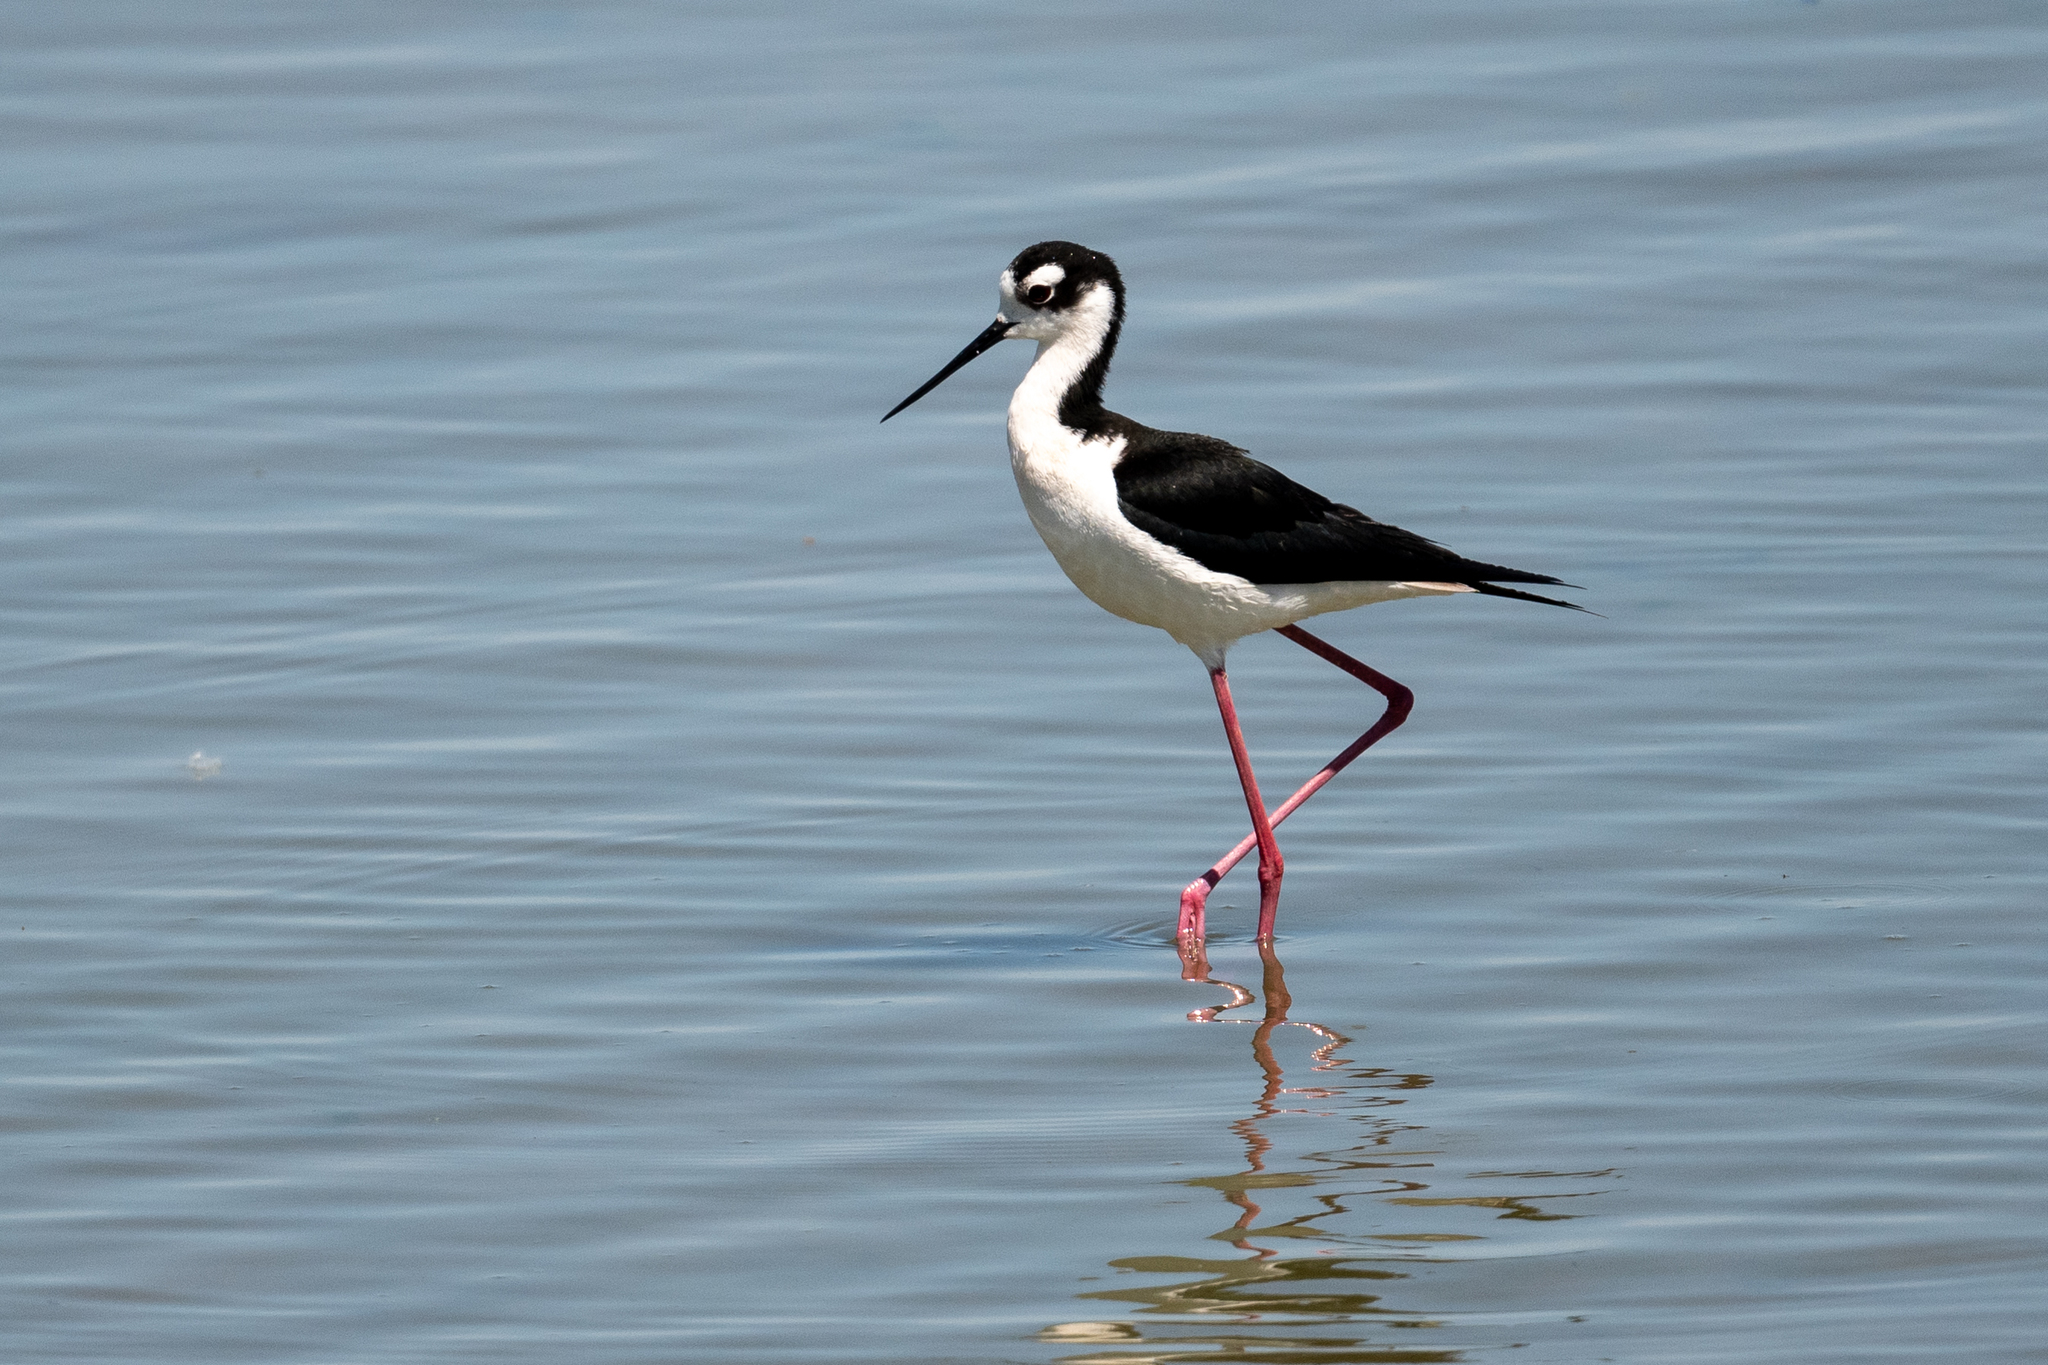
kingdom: Animalia
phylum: Chordata
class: Aves
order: Charadriiformes
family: Recurvirostridae
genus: Himantopus
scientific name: Himantopus mexicanus
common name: Black-necked stilt
